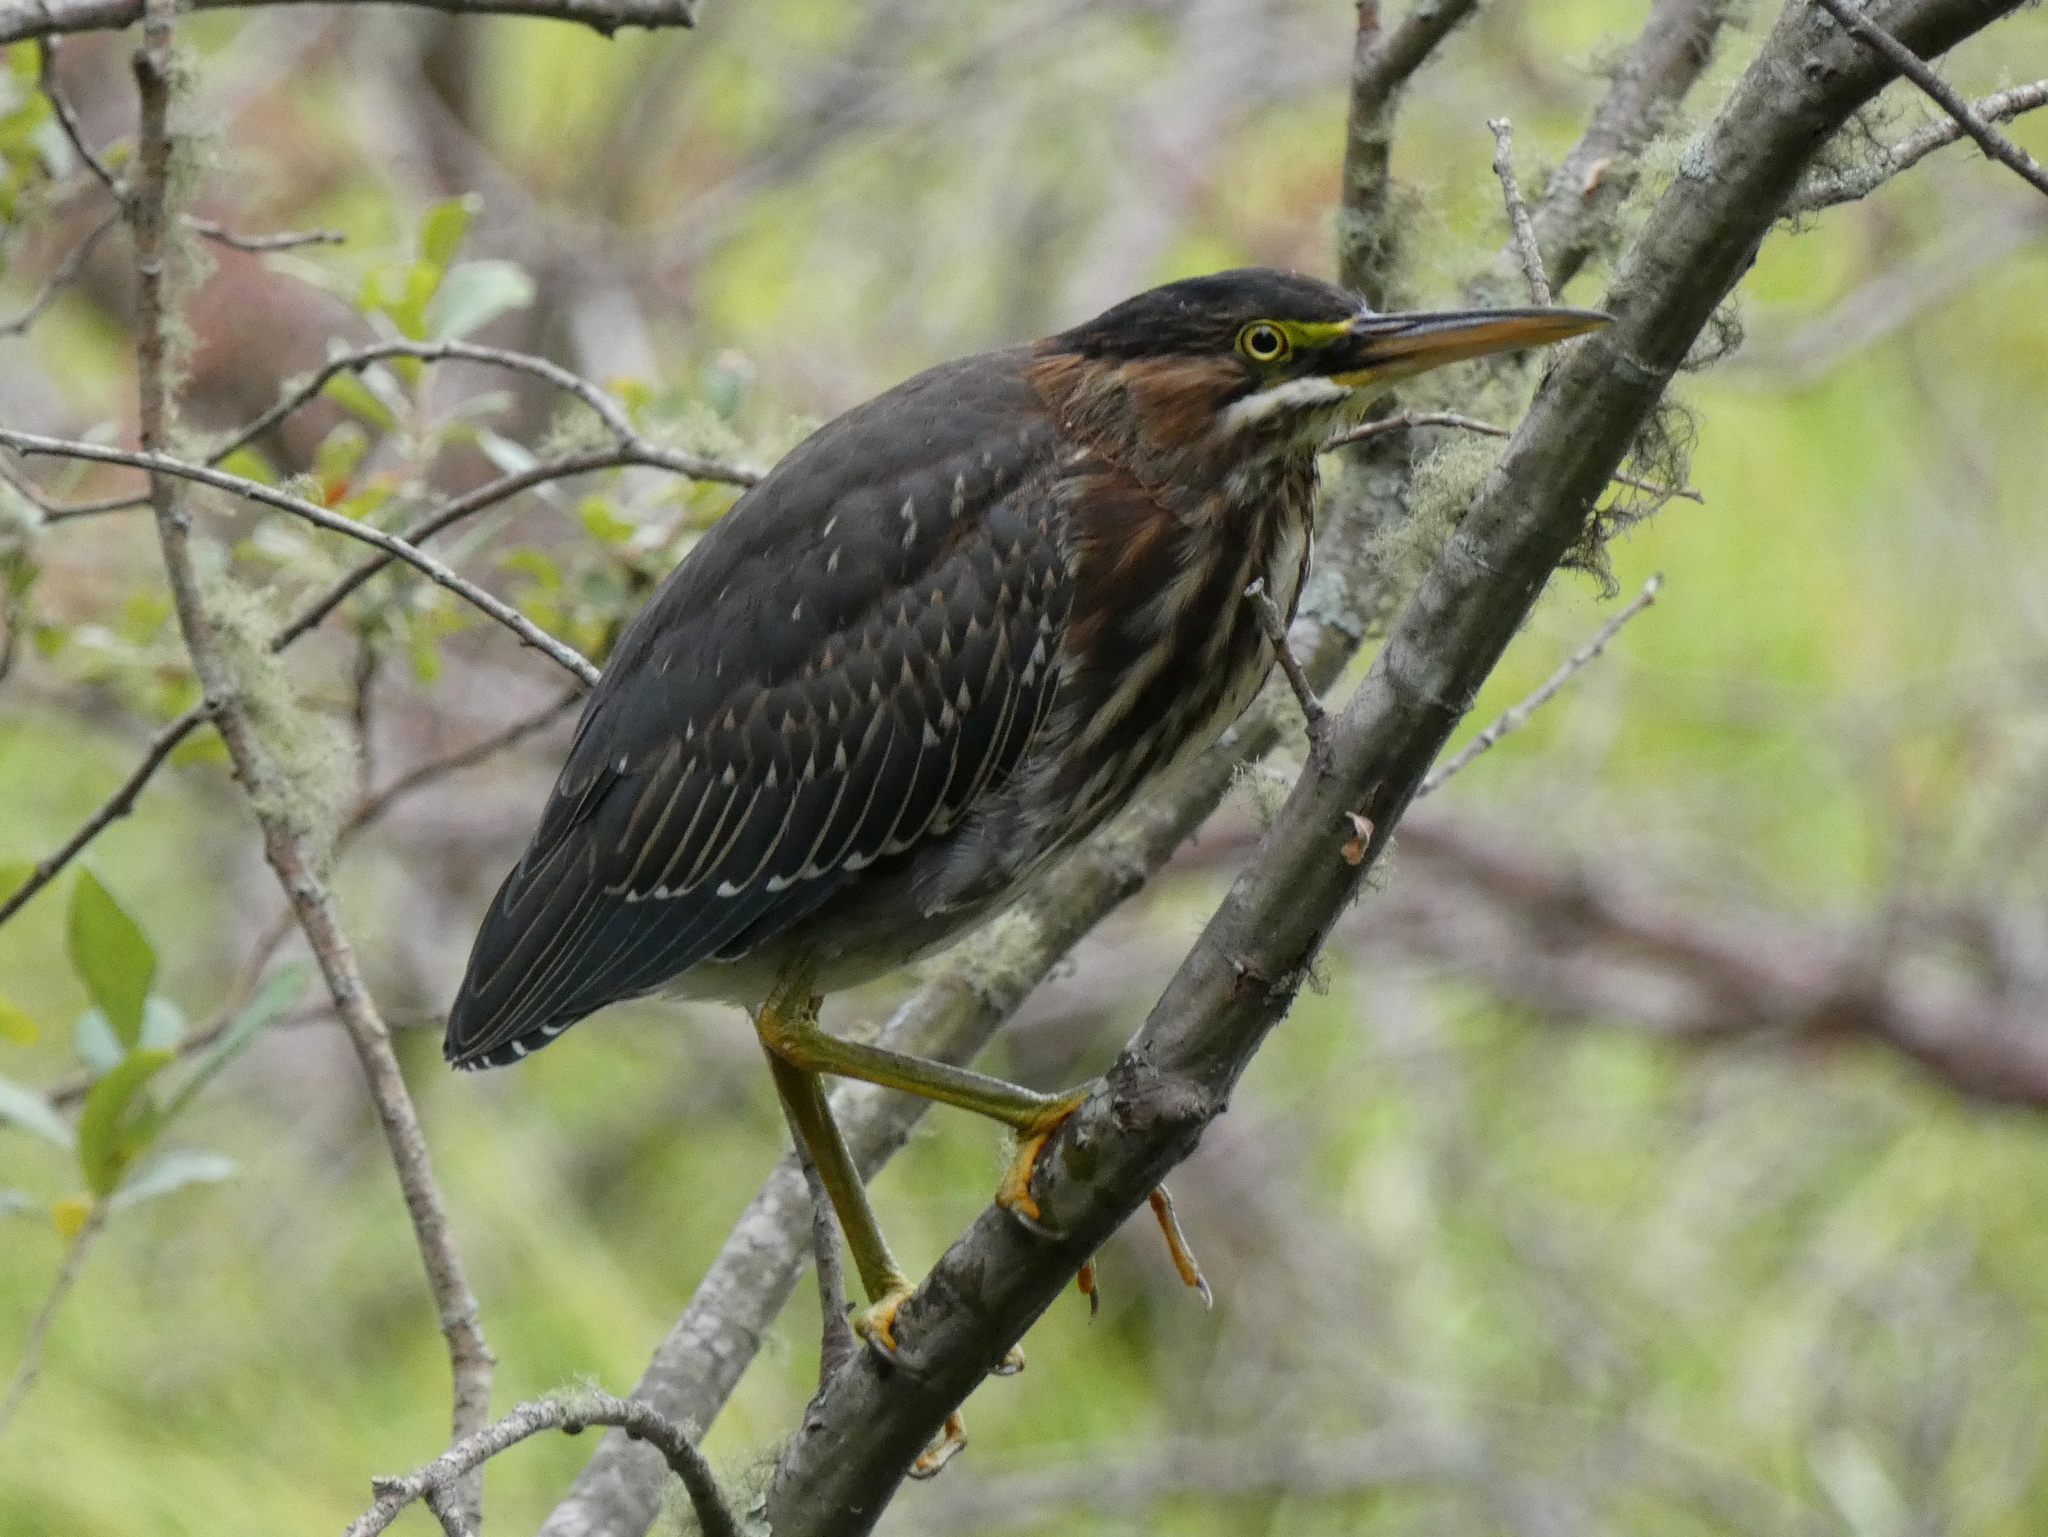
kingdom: Animalia
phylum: Chordata
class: Aves
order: Pelecaniformes
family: Ardeidae
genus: Butorides
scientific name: Butorides virescens
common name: Green heron
